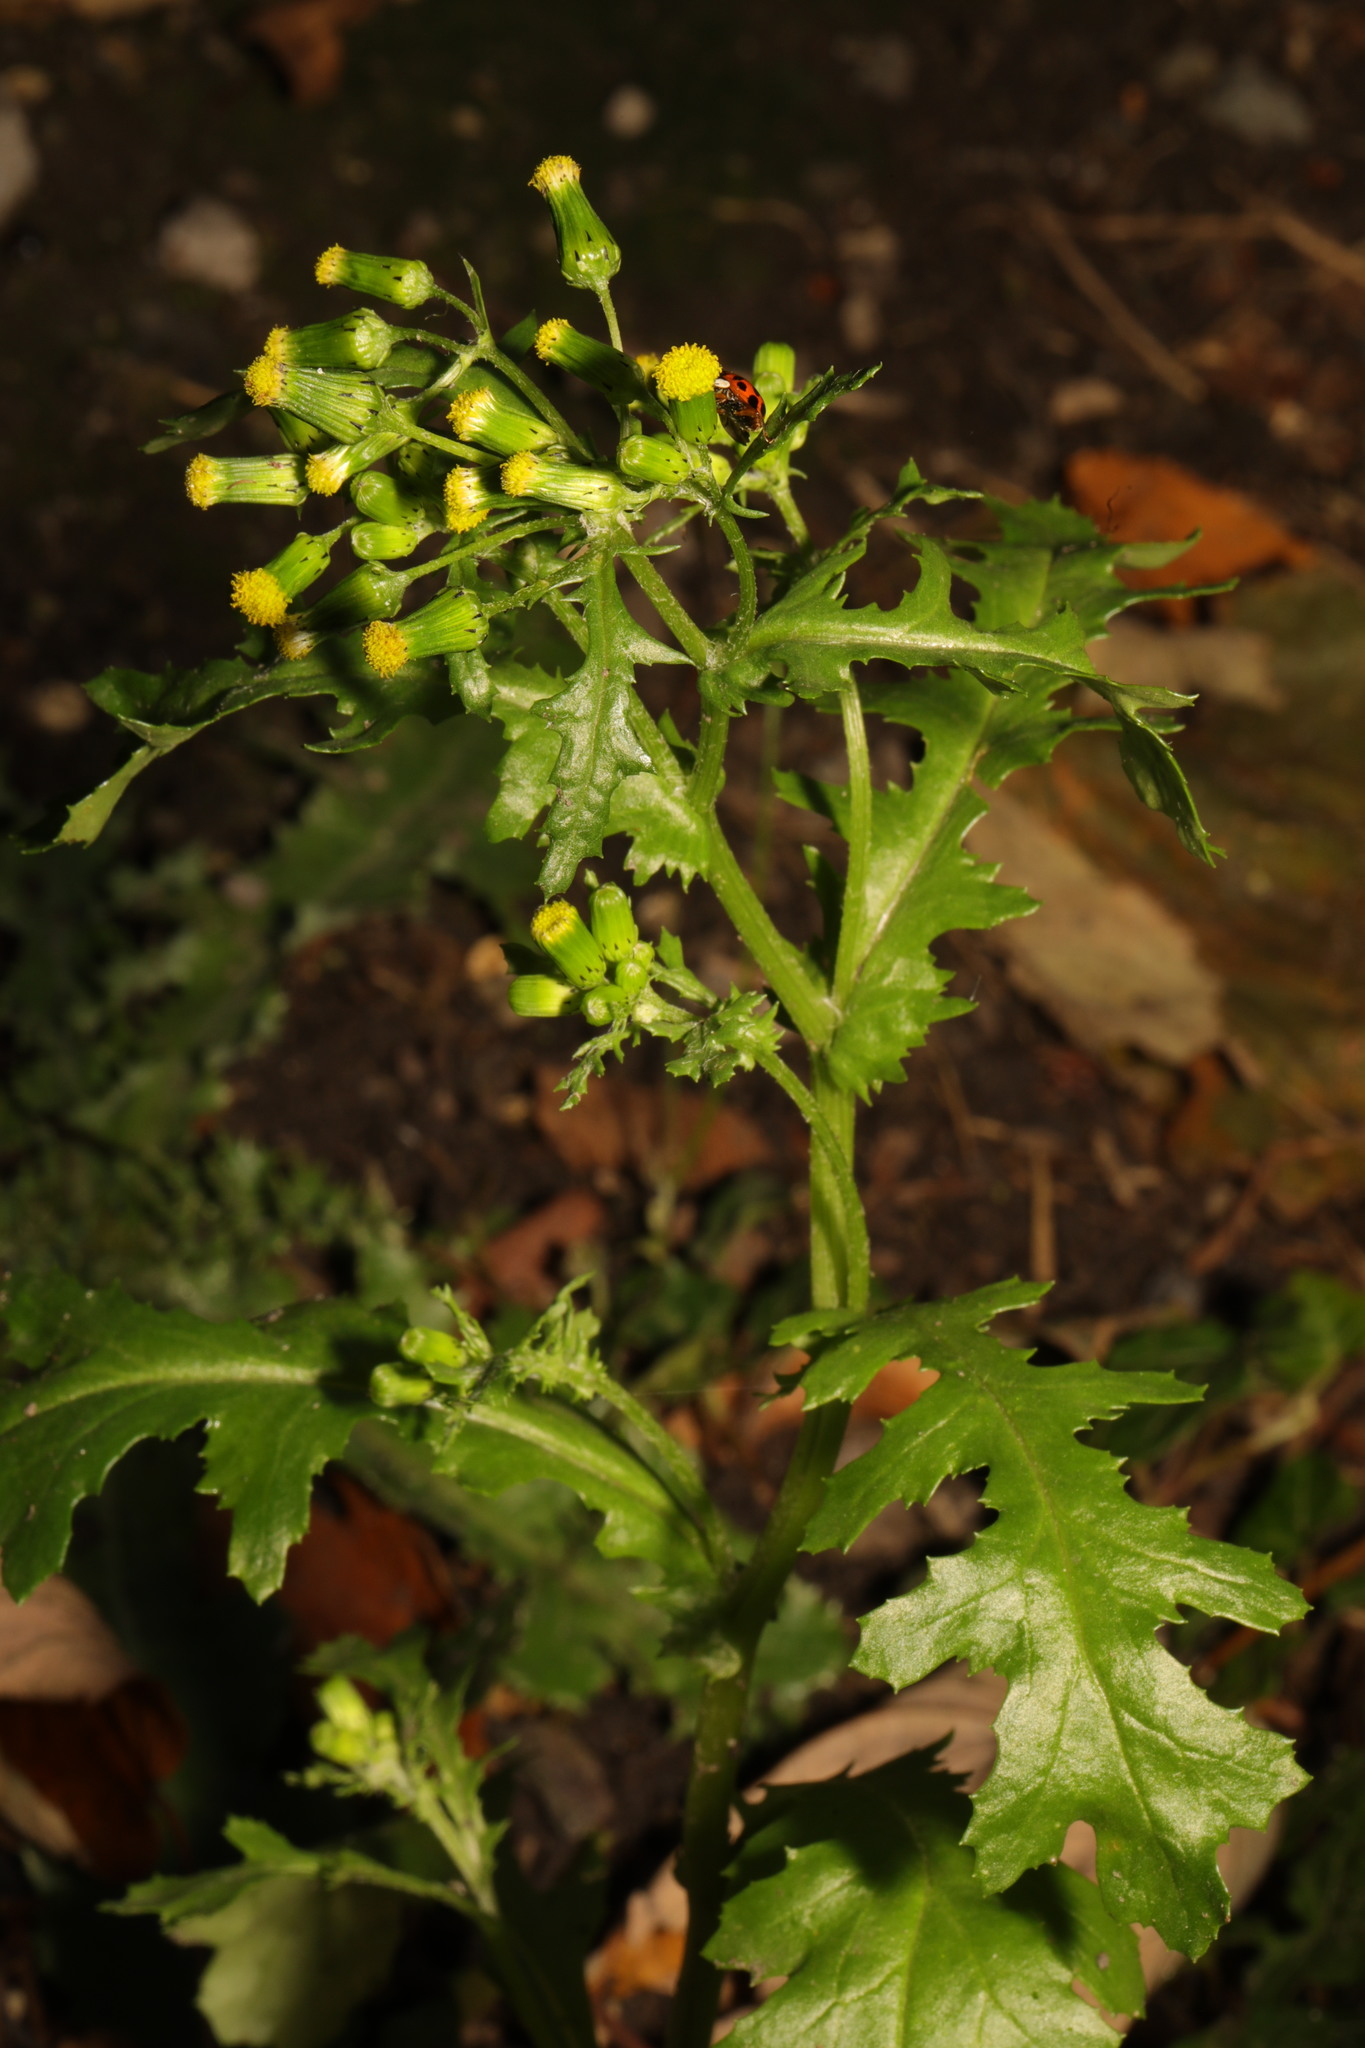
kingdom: Plantae
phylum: Tracheophyta
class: Magnoliopsida
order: Asterales
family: Asteraceae
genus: Senecio
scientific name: Senecio vulgaris
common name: Old-man-in-the-spring
